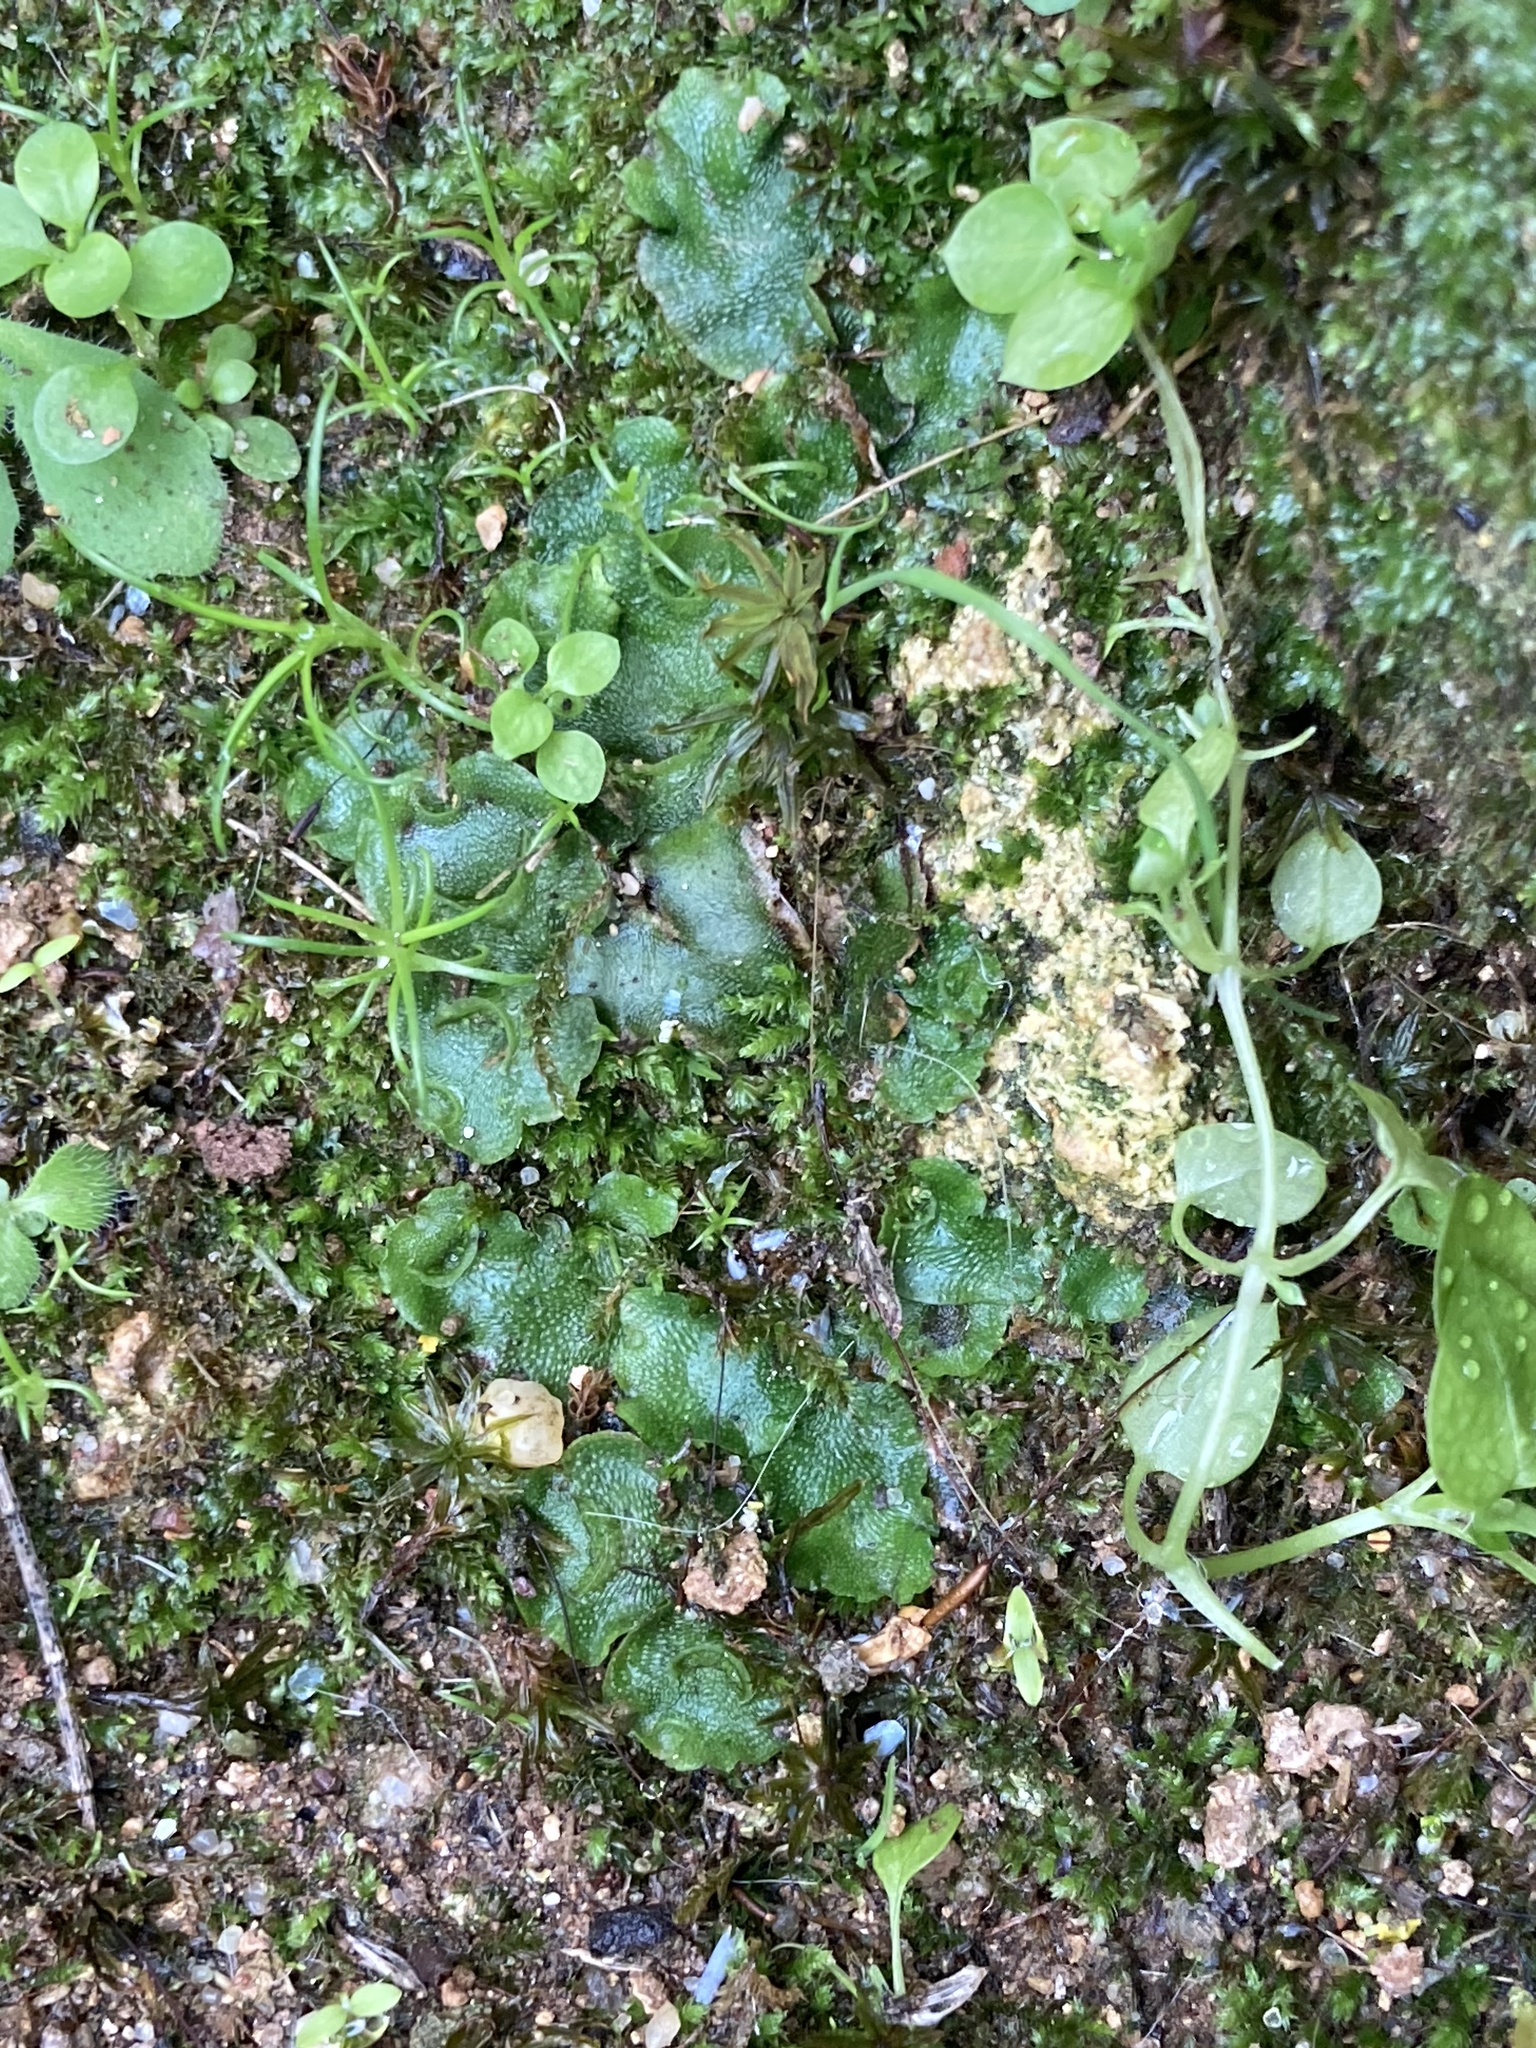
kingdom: Plantae
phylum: Marchantiophyta
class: Marchantiopsida
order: Lunulariales
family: Lunulariaceae
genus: Lunularia
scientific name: Lunularia cruciata
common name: Crescent-cup liverwort
